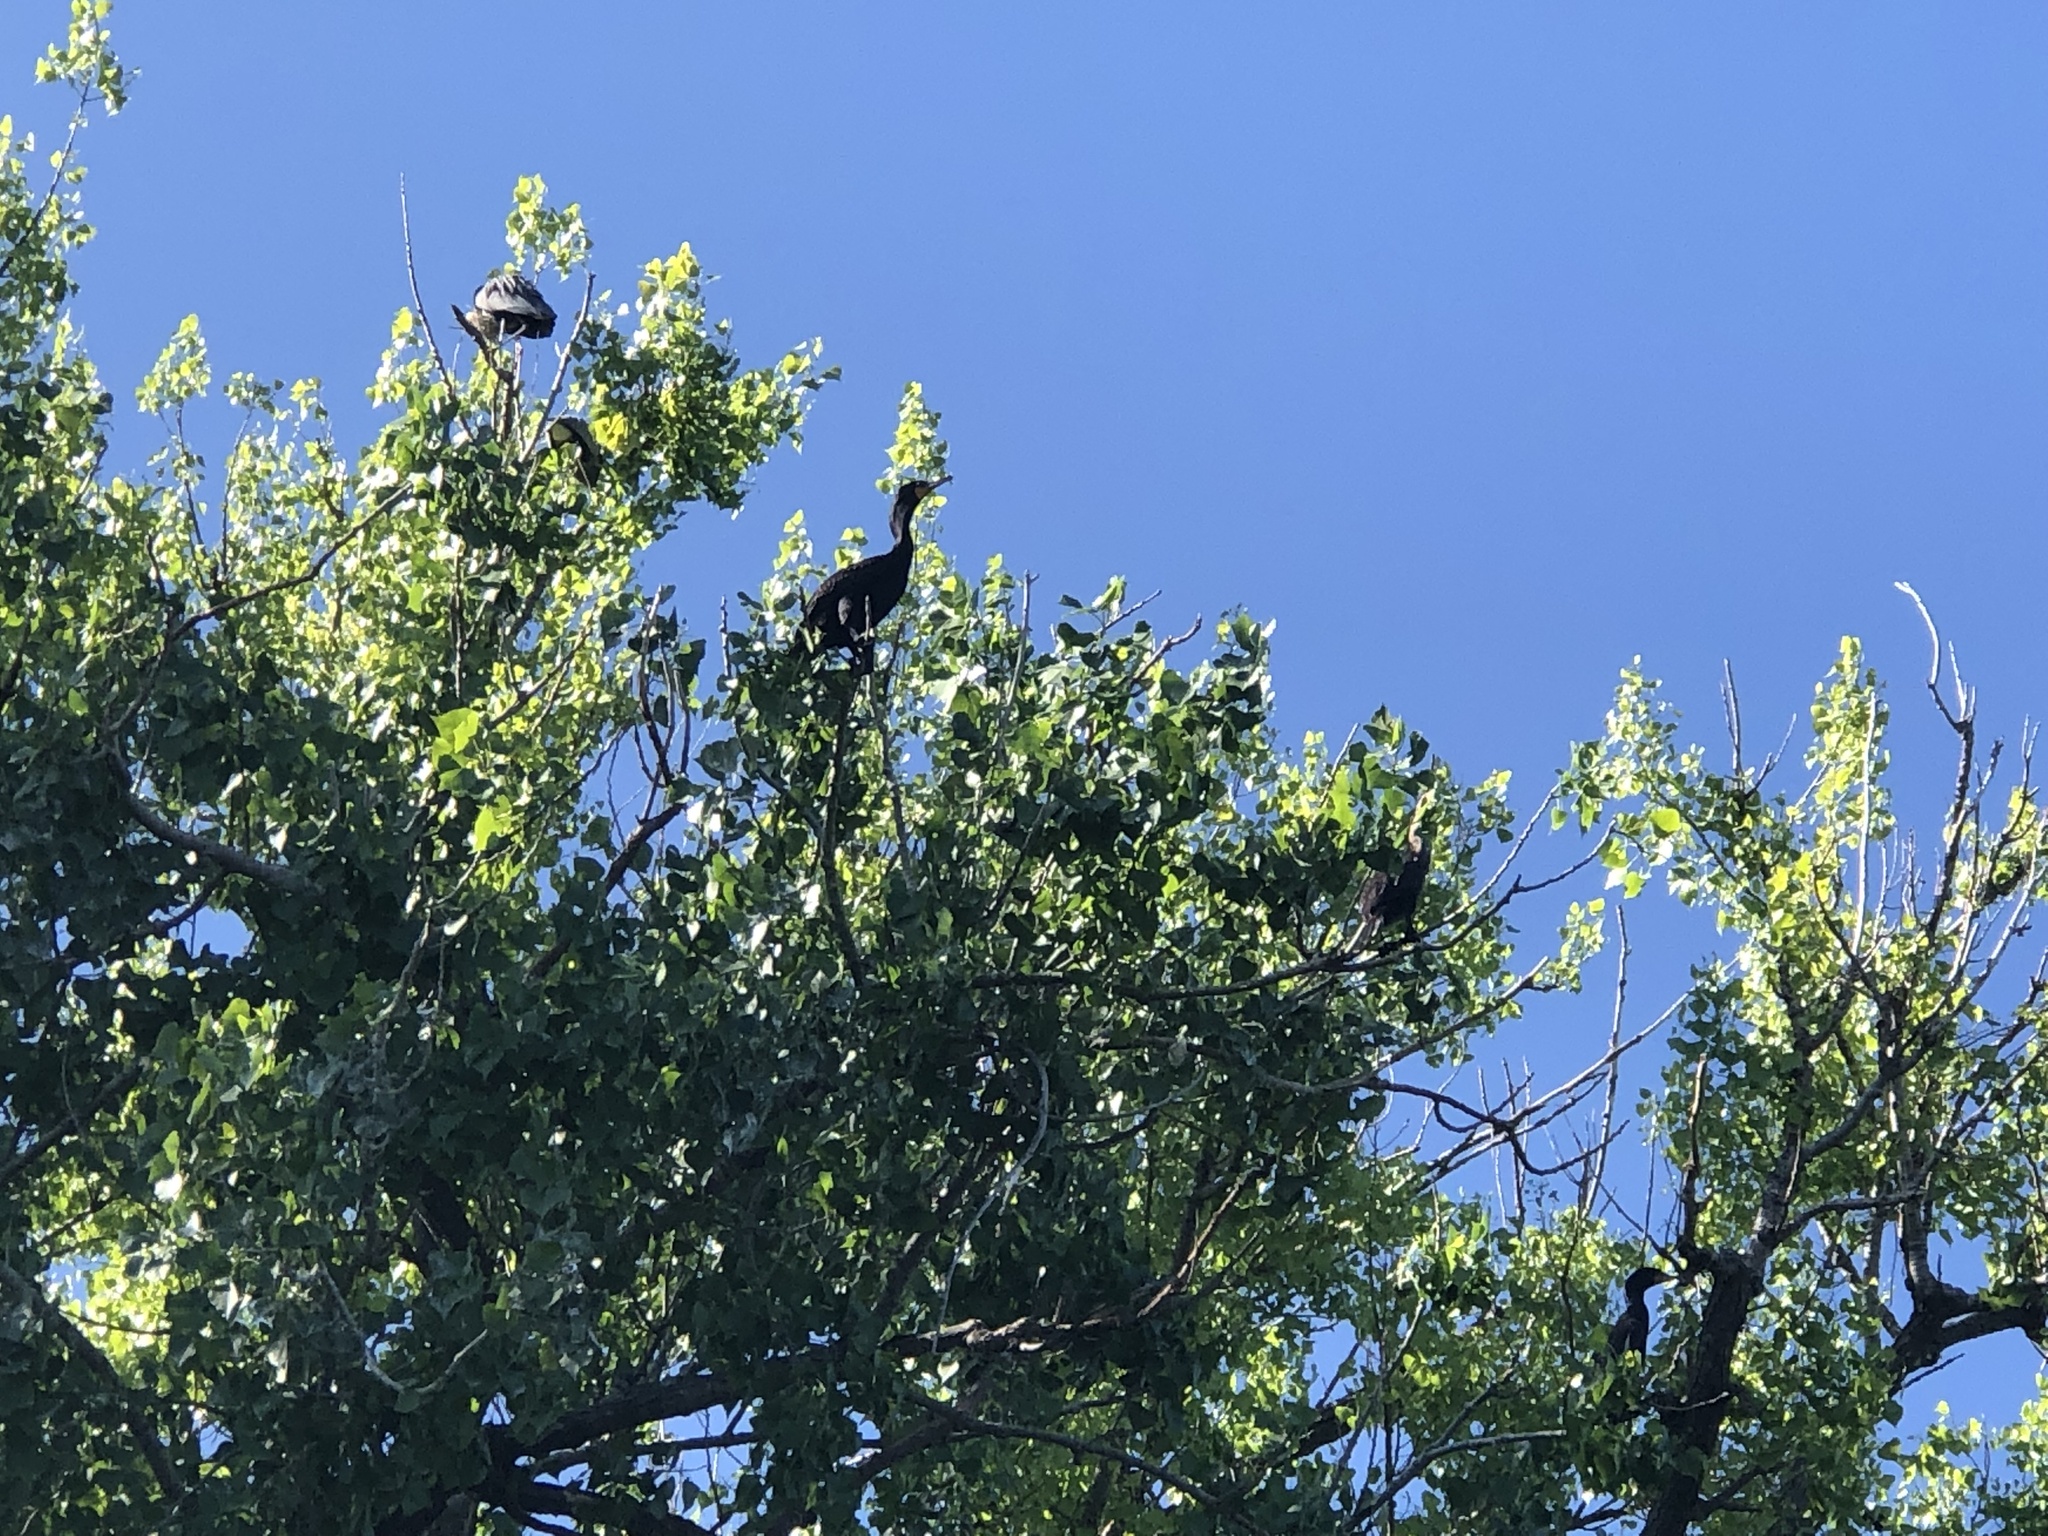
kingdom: Animalia
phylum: Chordata
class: Aves
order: Suliformes
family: Phalacrocoracidae
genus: Phalacrocorax
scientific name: Phalacrocorax auritus
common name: Double-crested cormorant
